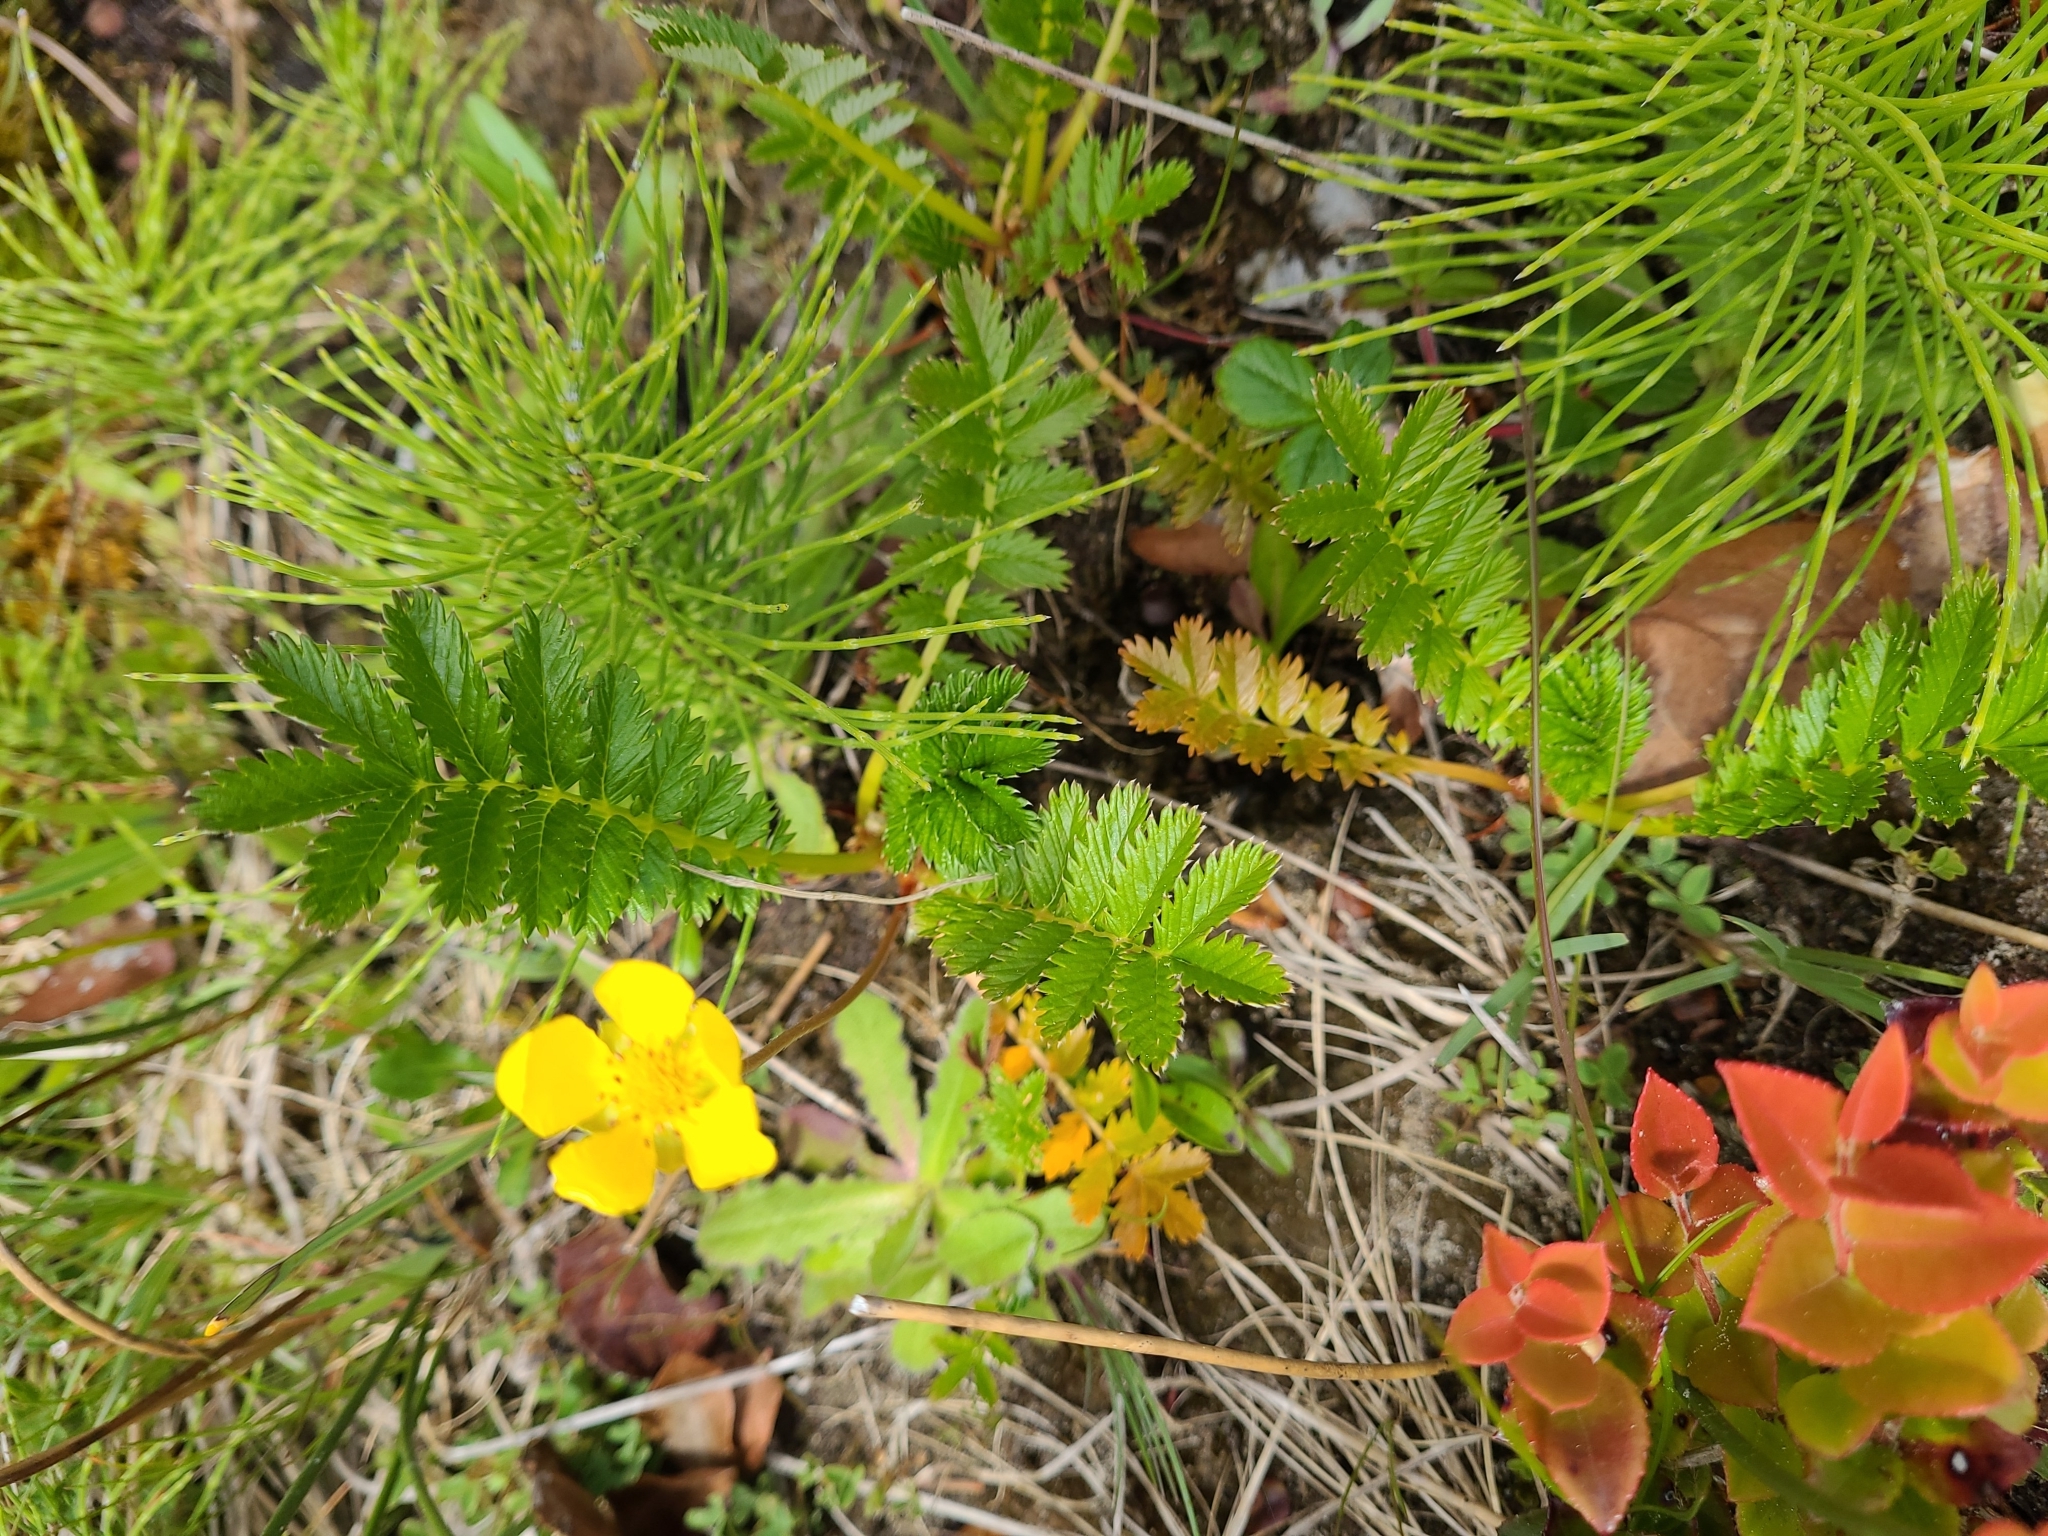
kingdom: Plantae
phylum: Tracheophyta
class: Magnoliopsida
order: Rosales
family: Rosaceae
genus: Argentina
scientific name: Argentina anserina
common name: Common silverweed
